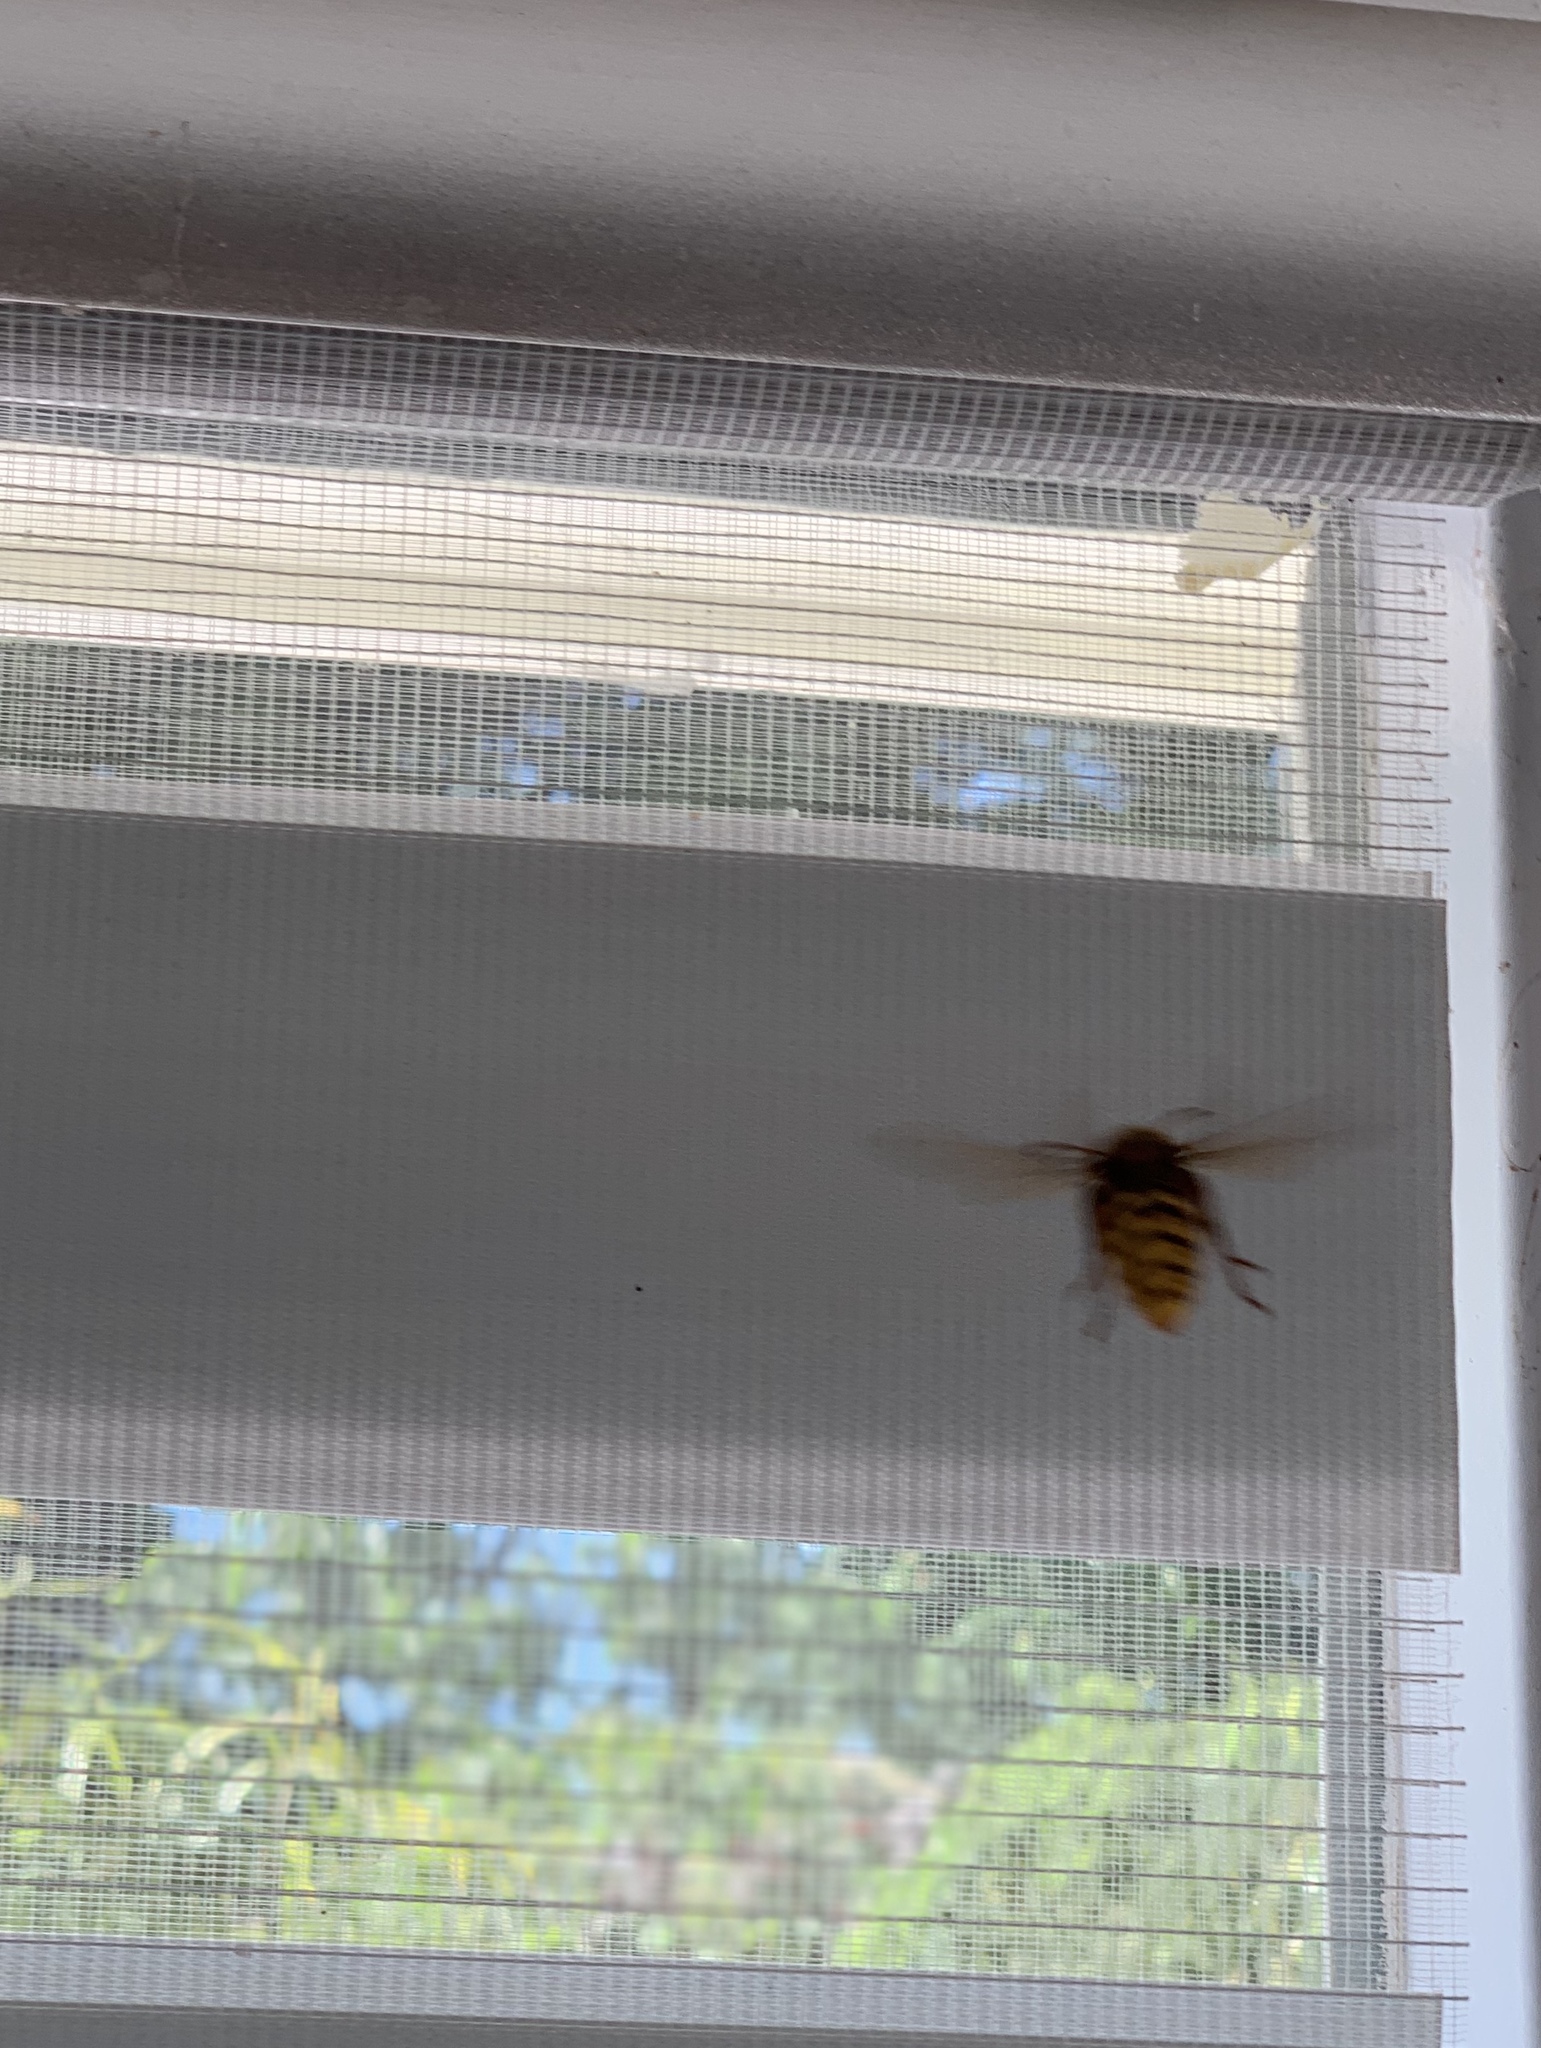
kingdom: Animalia
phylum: Arthropoda
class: Insecta
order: Hymenoptera
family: Vespidae
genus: Vespa
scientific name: Vespa crabro
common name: Hornet
